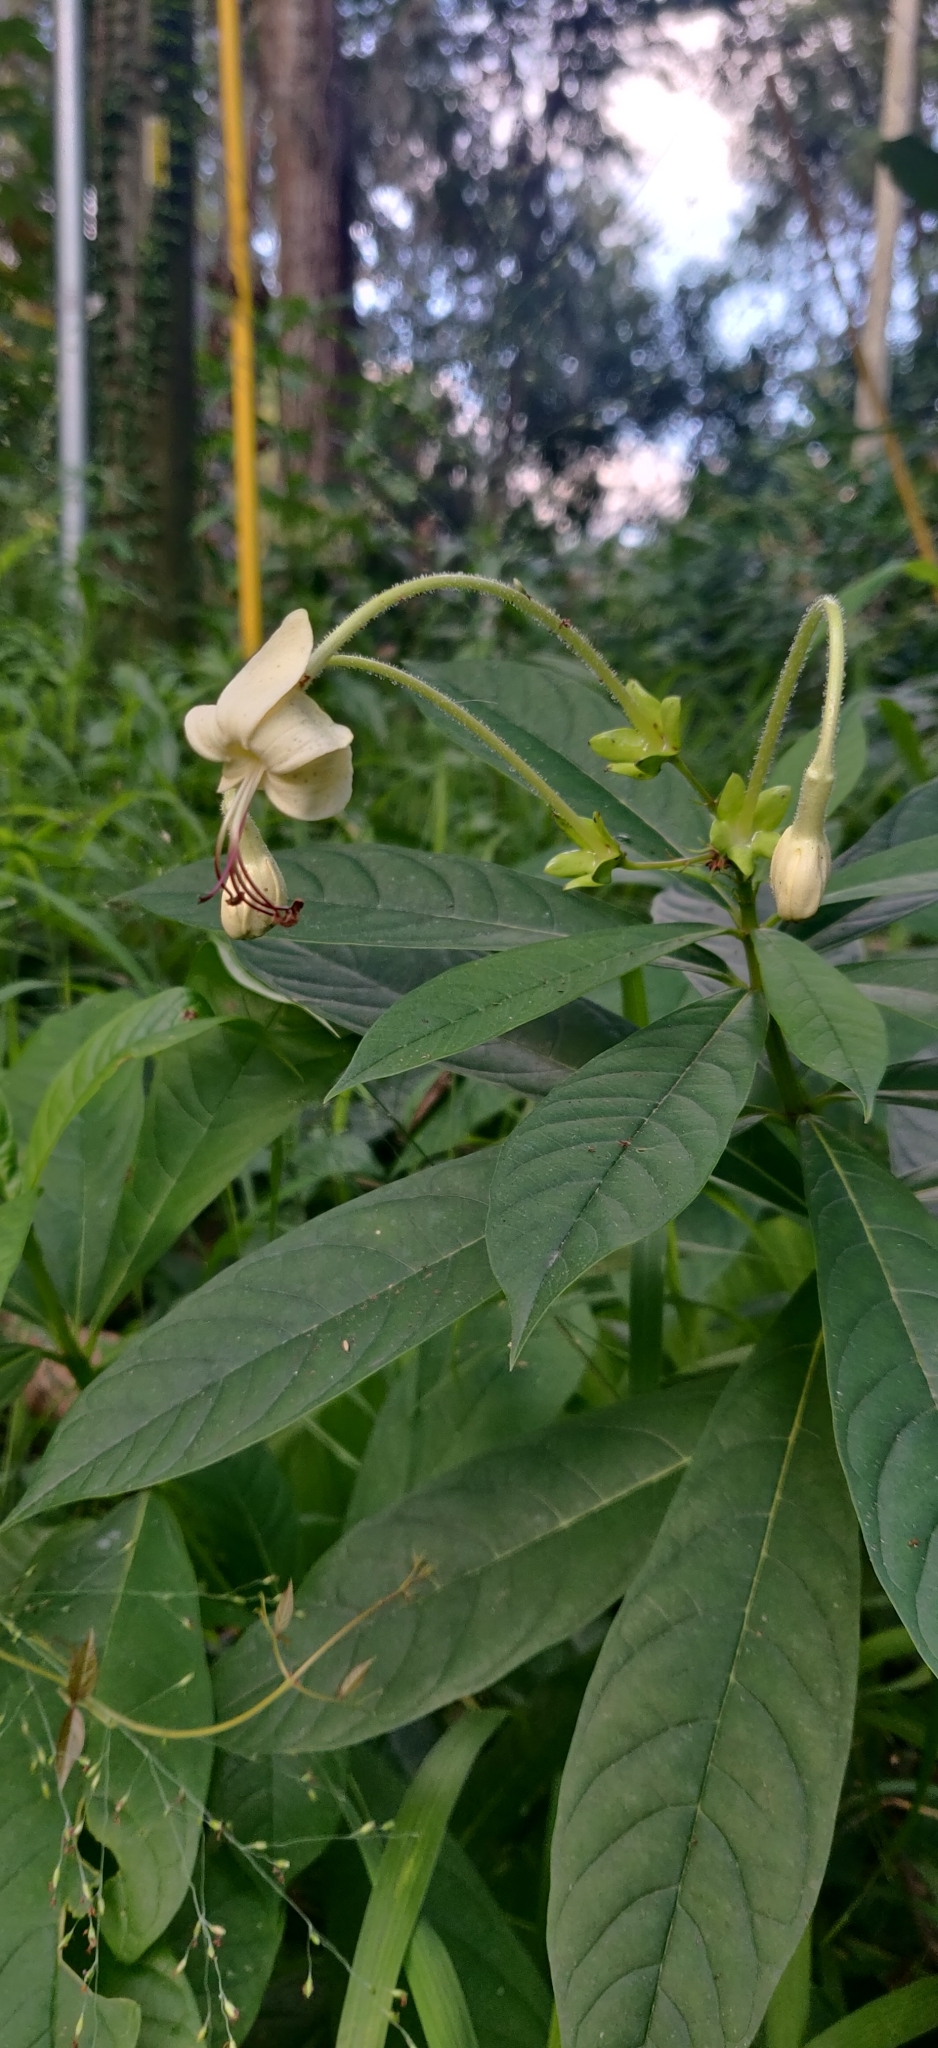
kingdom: Plantae
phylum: Tracheophyta
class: Magnoliopsida
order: Lamiales
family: Lamiaceae
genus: Clerodendrum
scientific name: Clerodendrum indicum
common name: Turk's turbin
